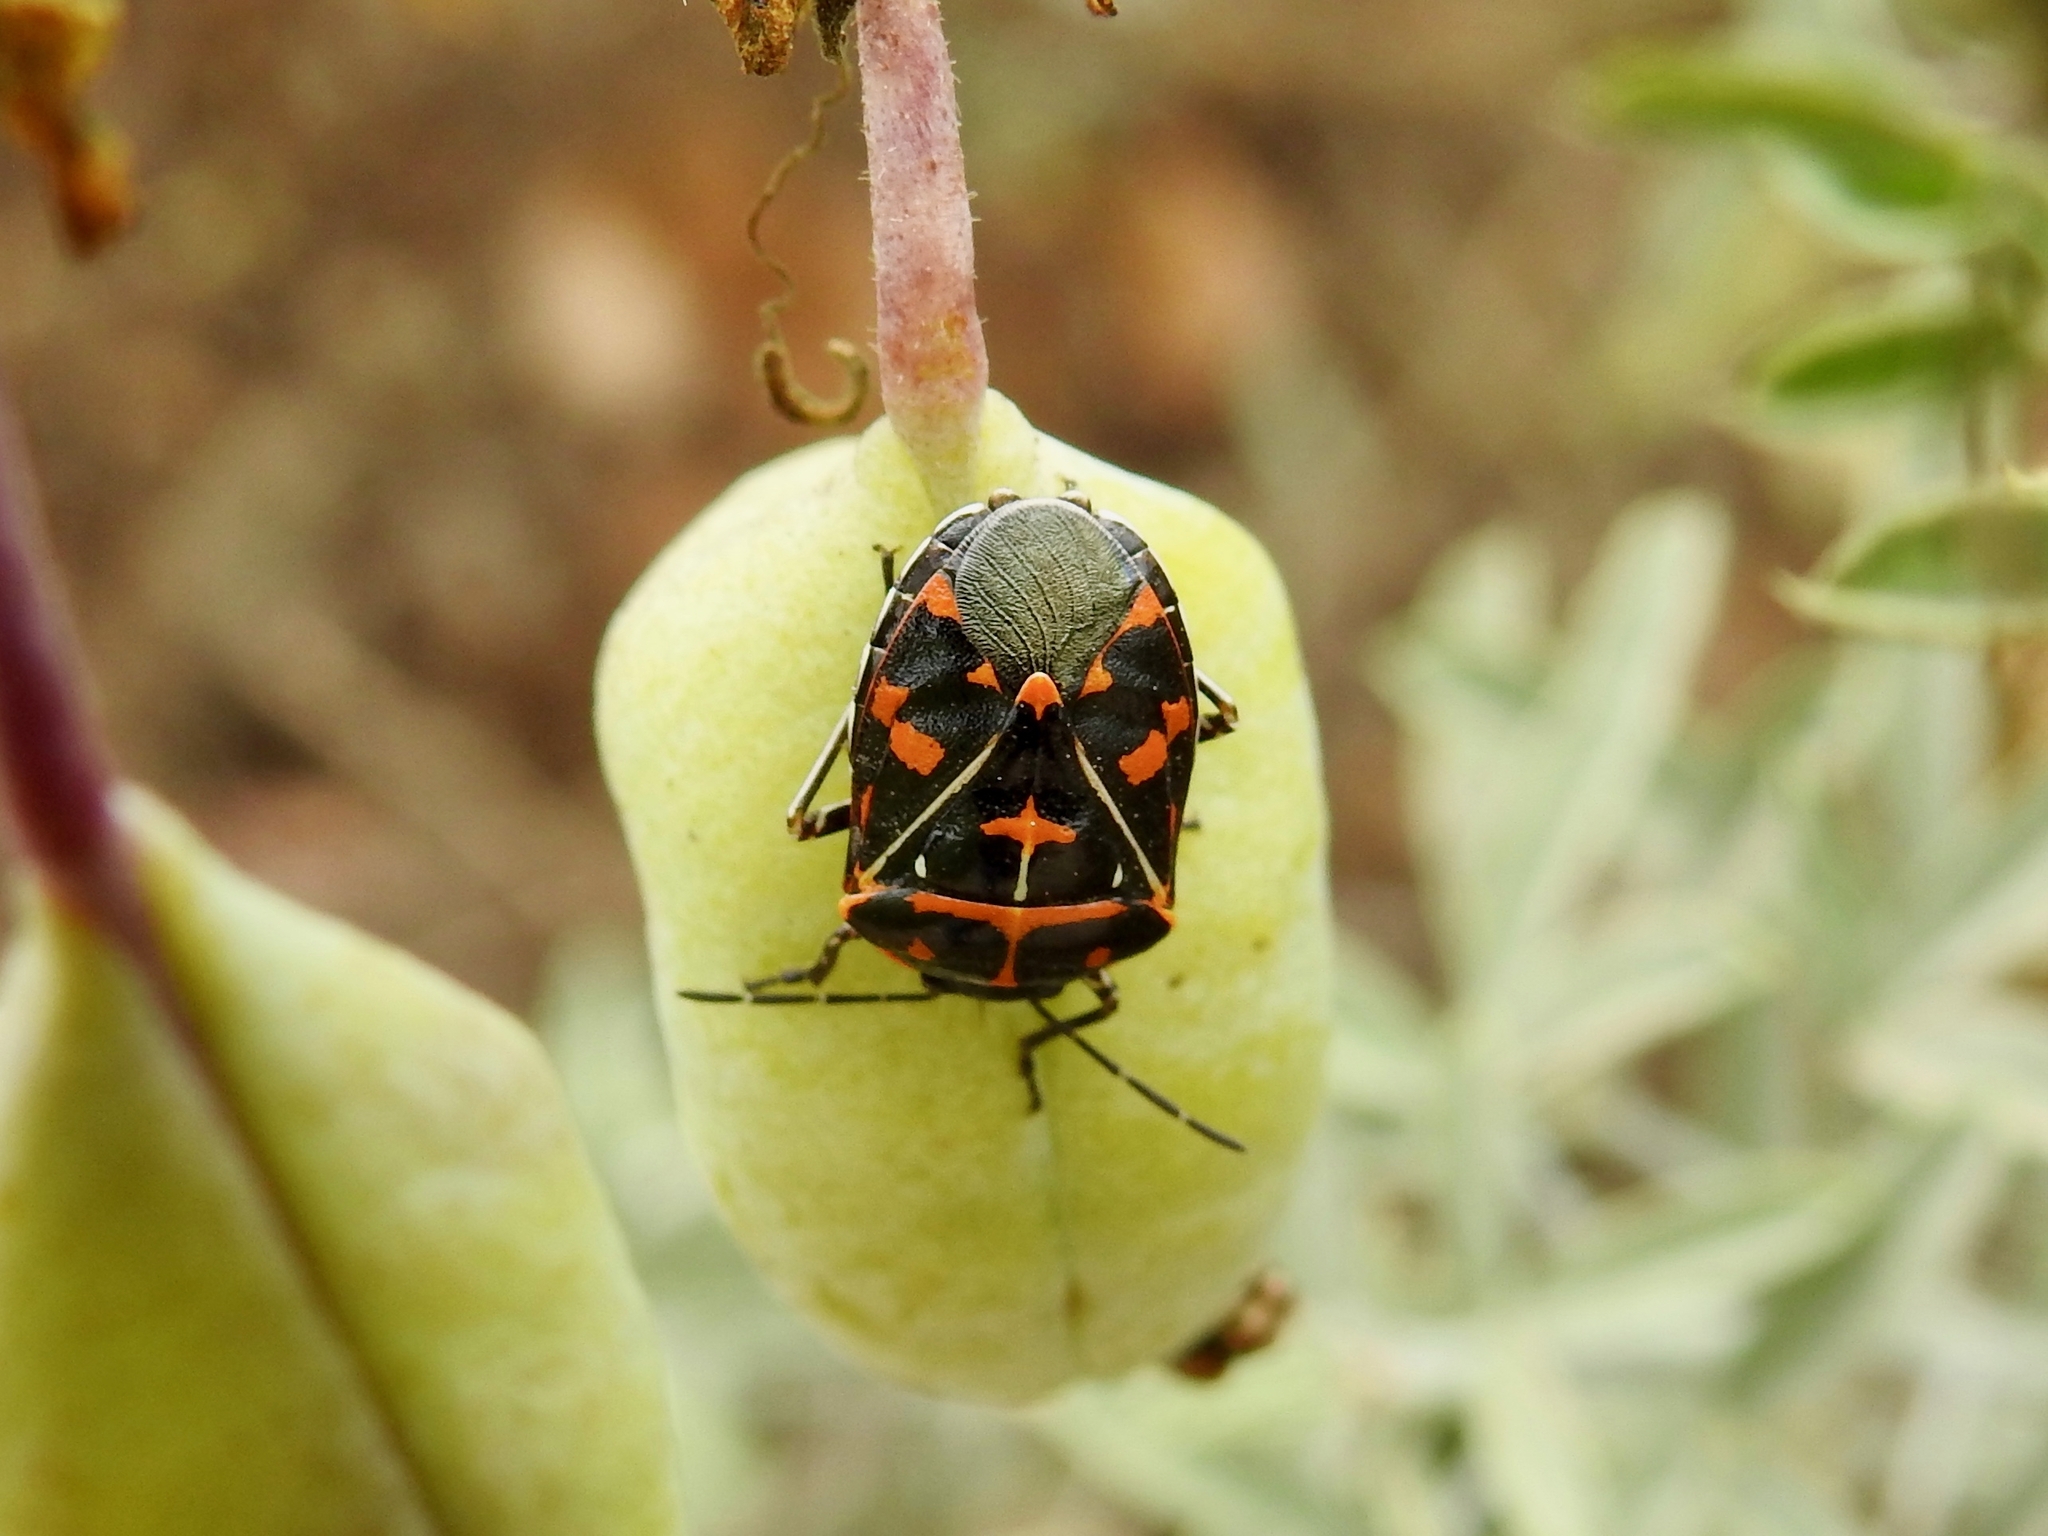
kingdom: Animalia
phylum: Arthropoda
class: Insecta
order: Hemiptera
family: Pentatomidae
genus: Murgantia
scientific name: Murgantia histrionica
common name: Harlequin bug
